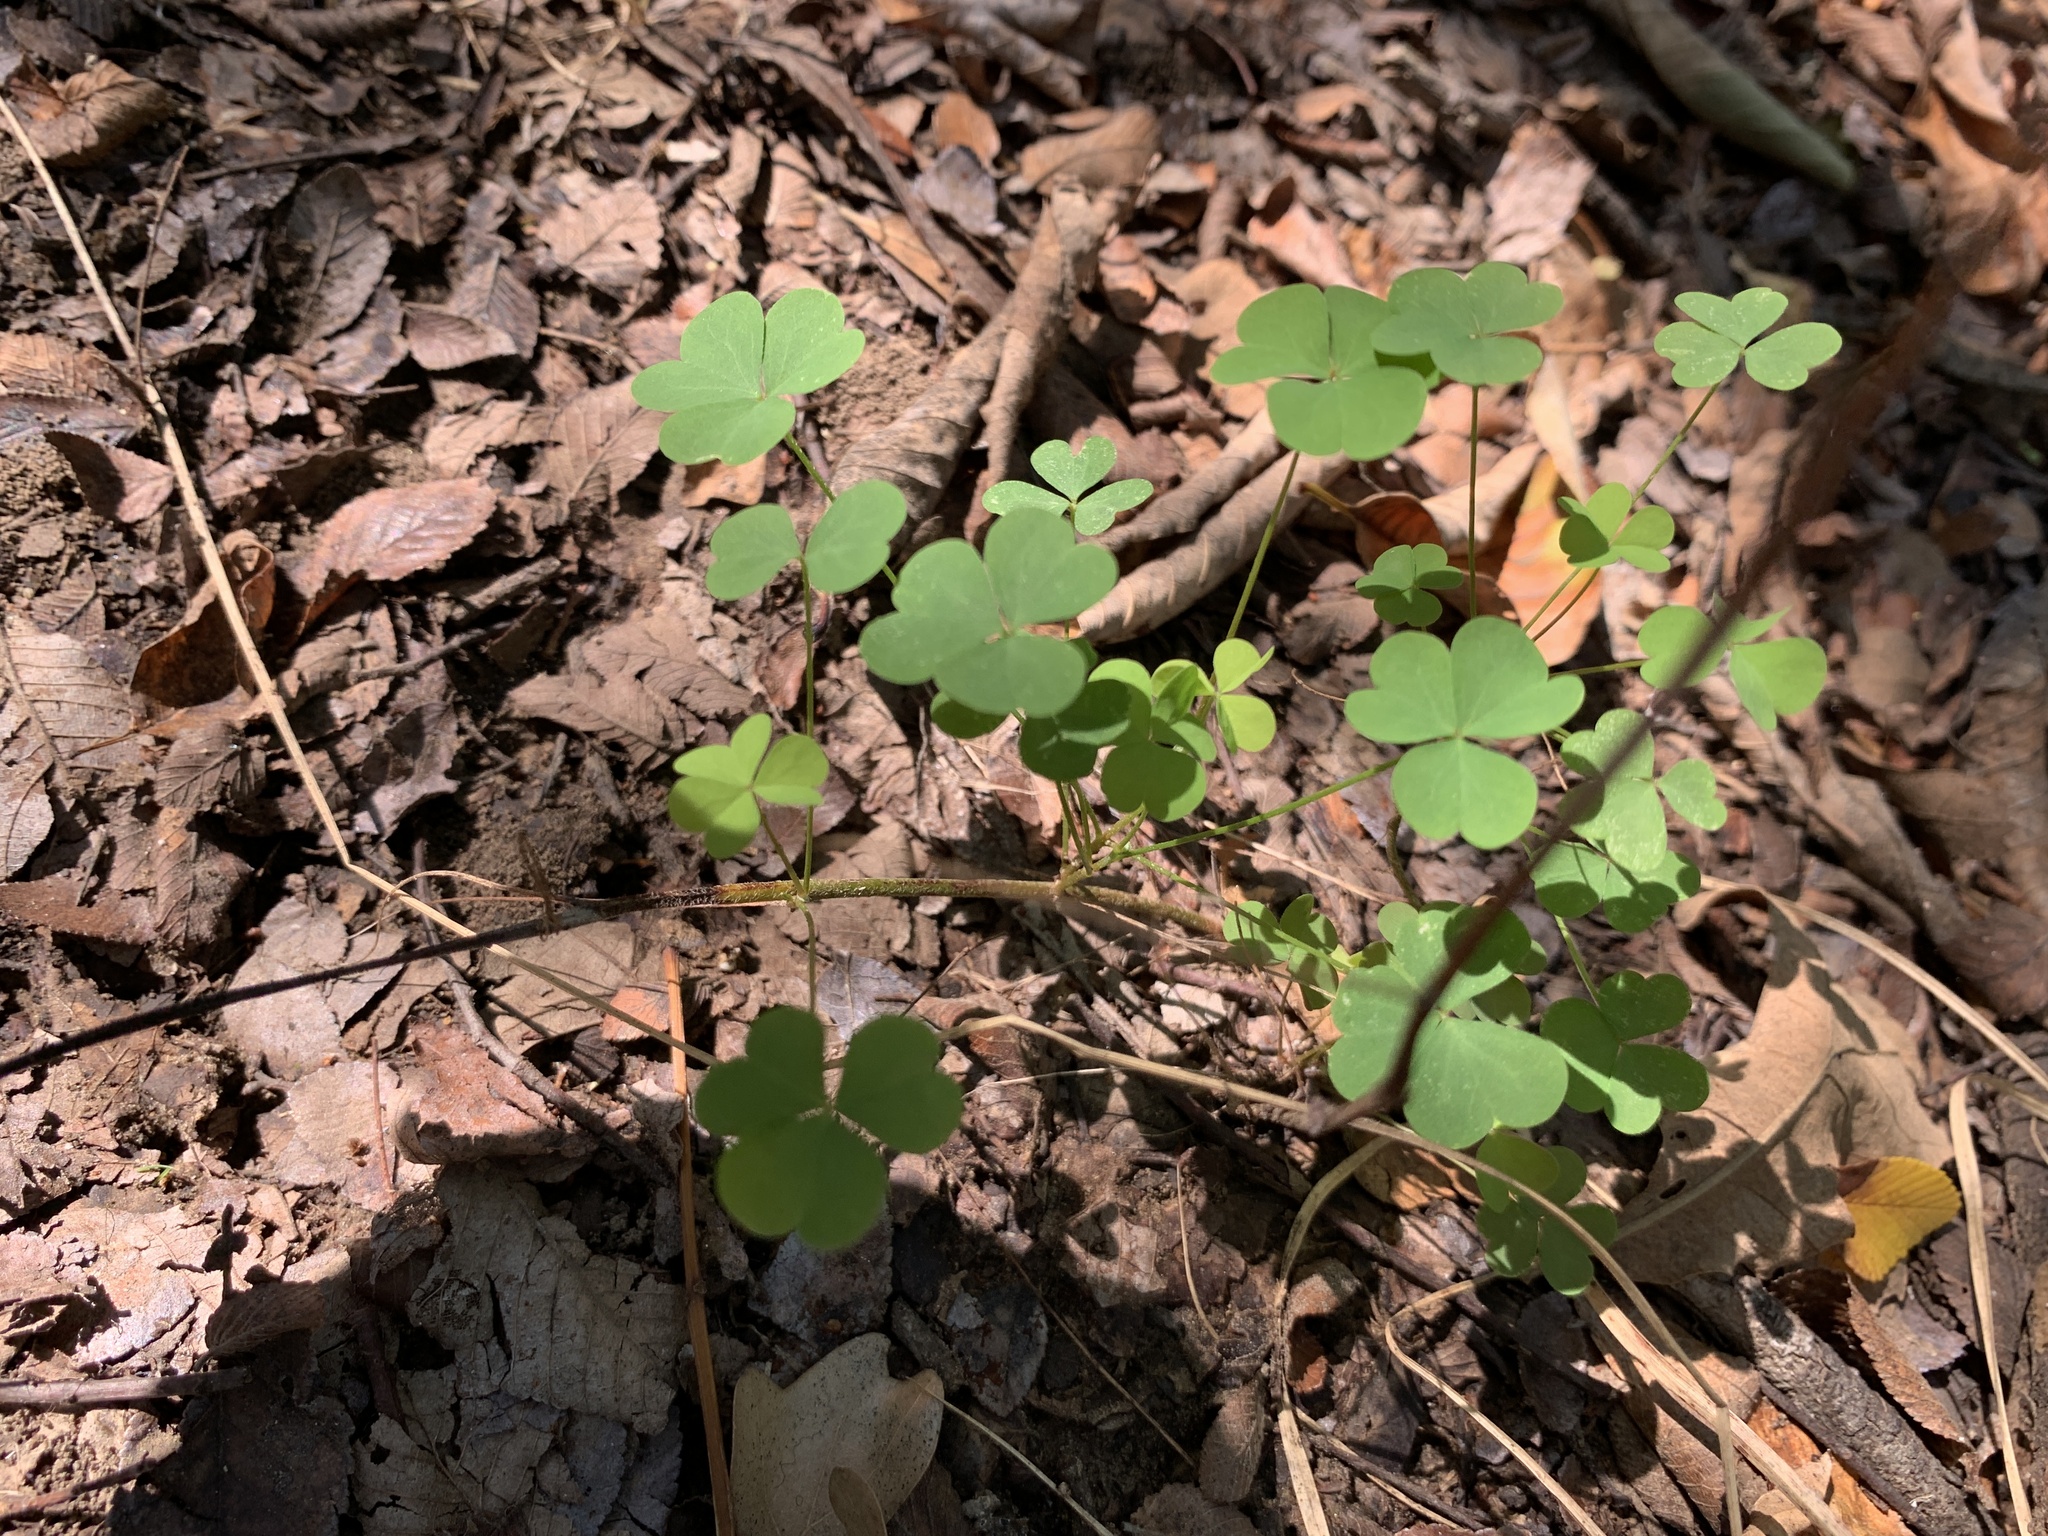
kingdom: Plantae
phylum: Tracheophyta
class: Magnoliopsida
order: Oxalidales
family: Oxalidaceae
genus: Oxalis
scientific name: Oxalis dillenii
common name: Sussex yellow-sorrel
